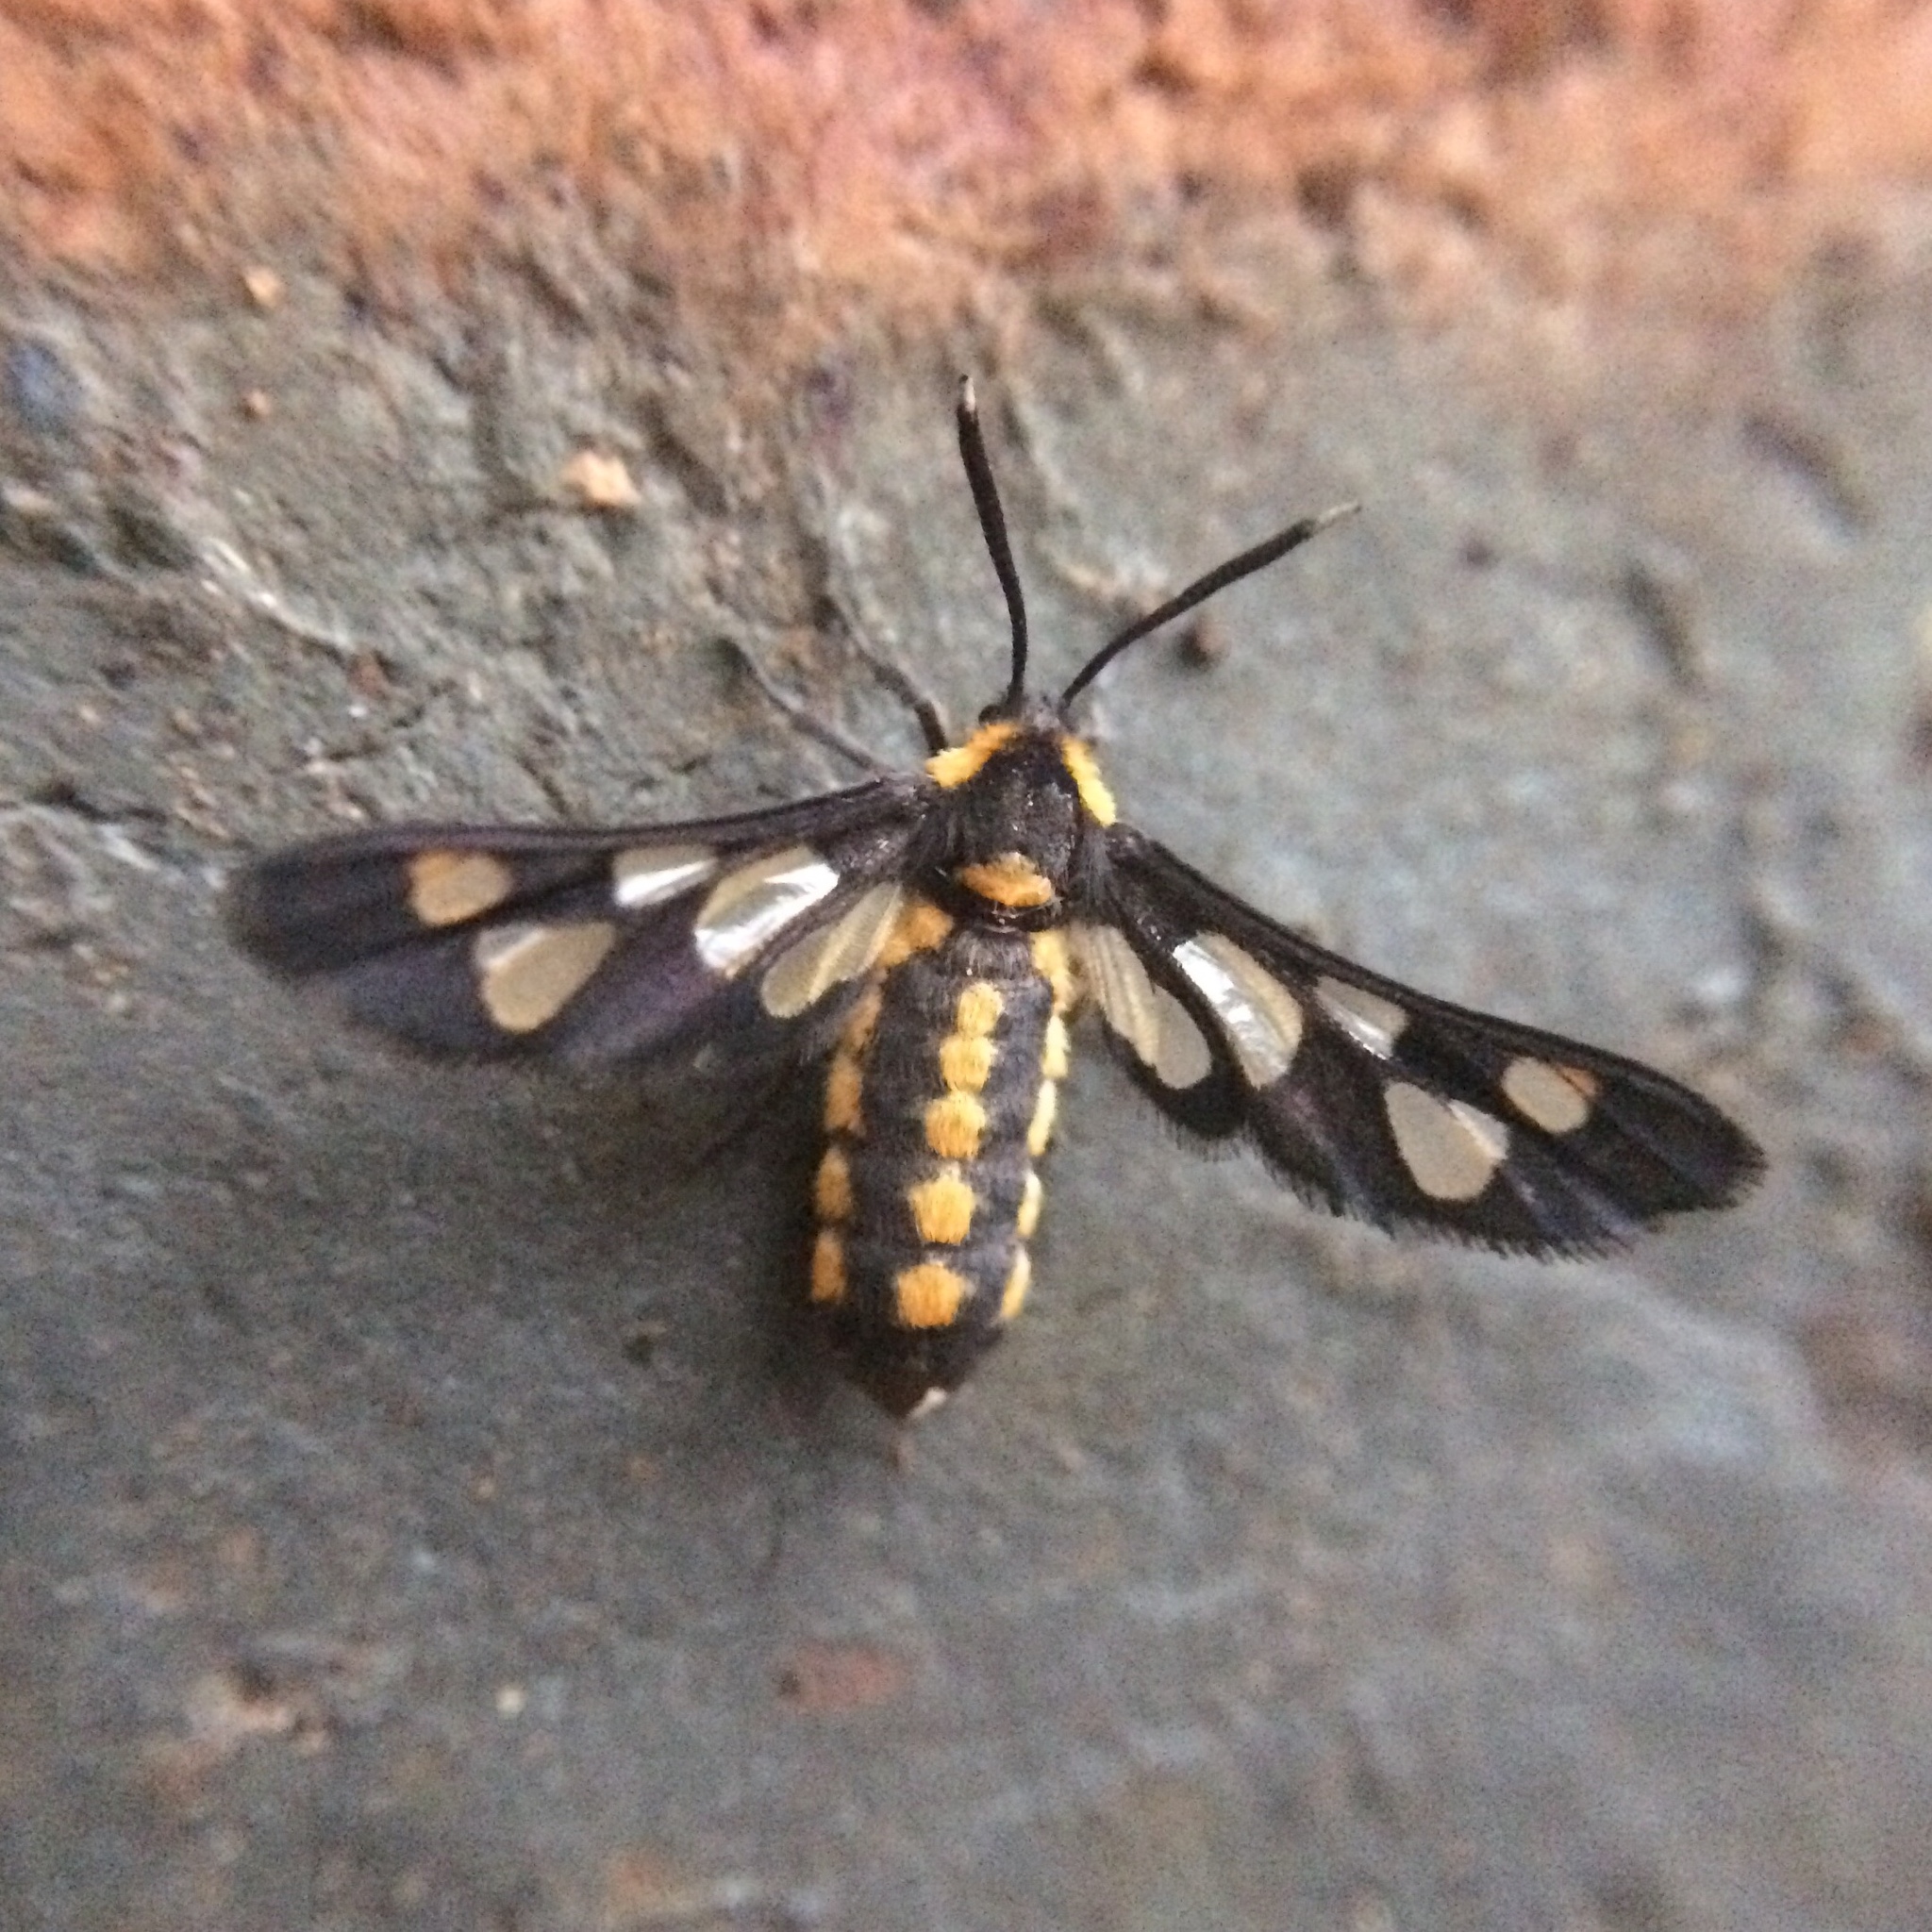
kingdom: Animalia
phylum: Arthropoda
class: Insecta
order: Lepidoptera
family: Erebidae
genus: Ceryx
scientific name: Ceryx fulvescens
